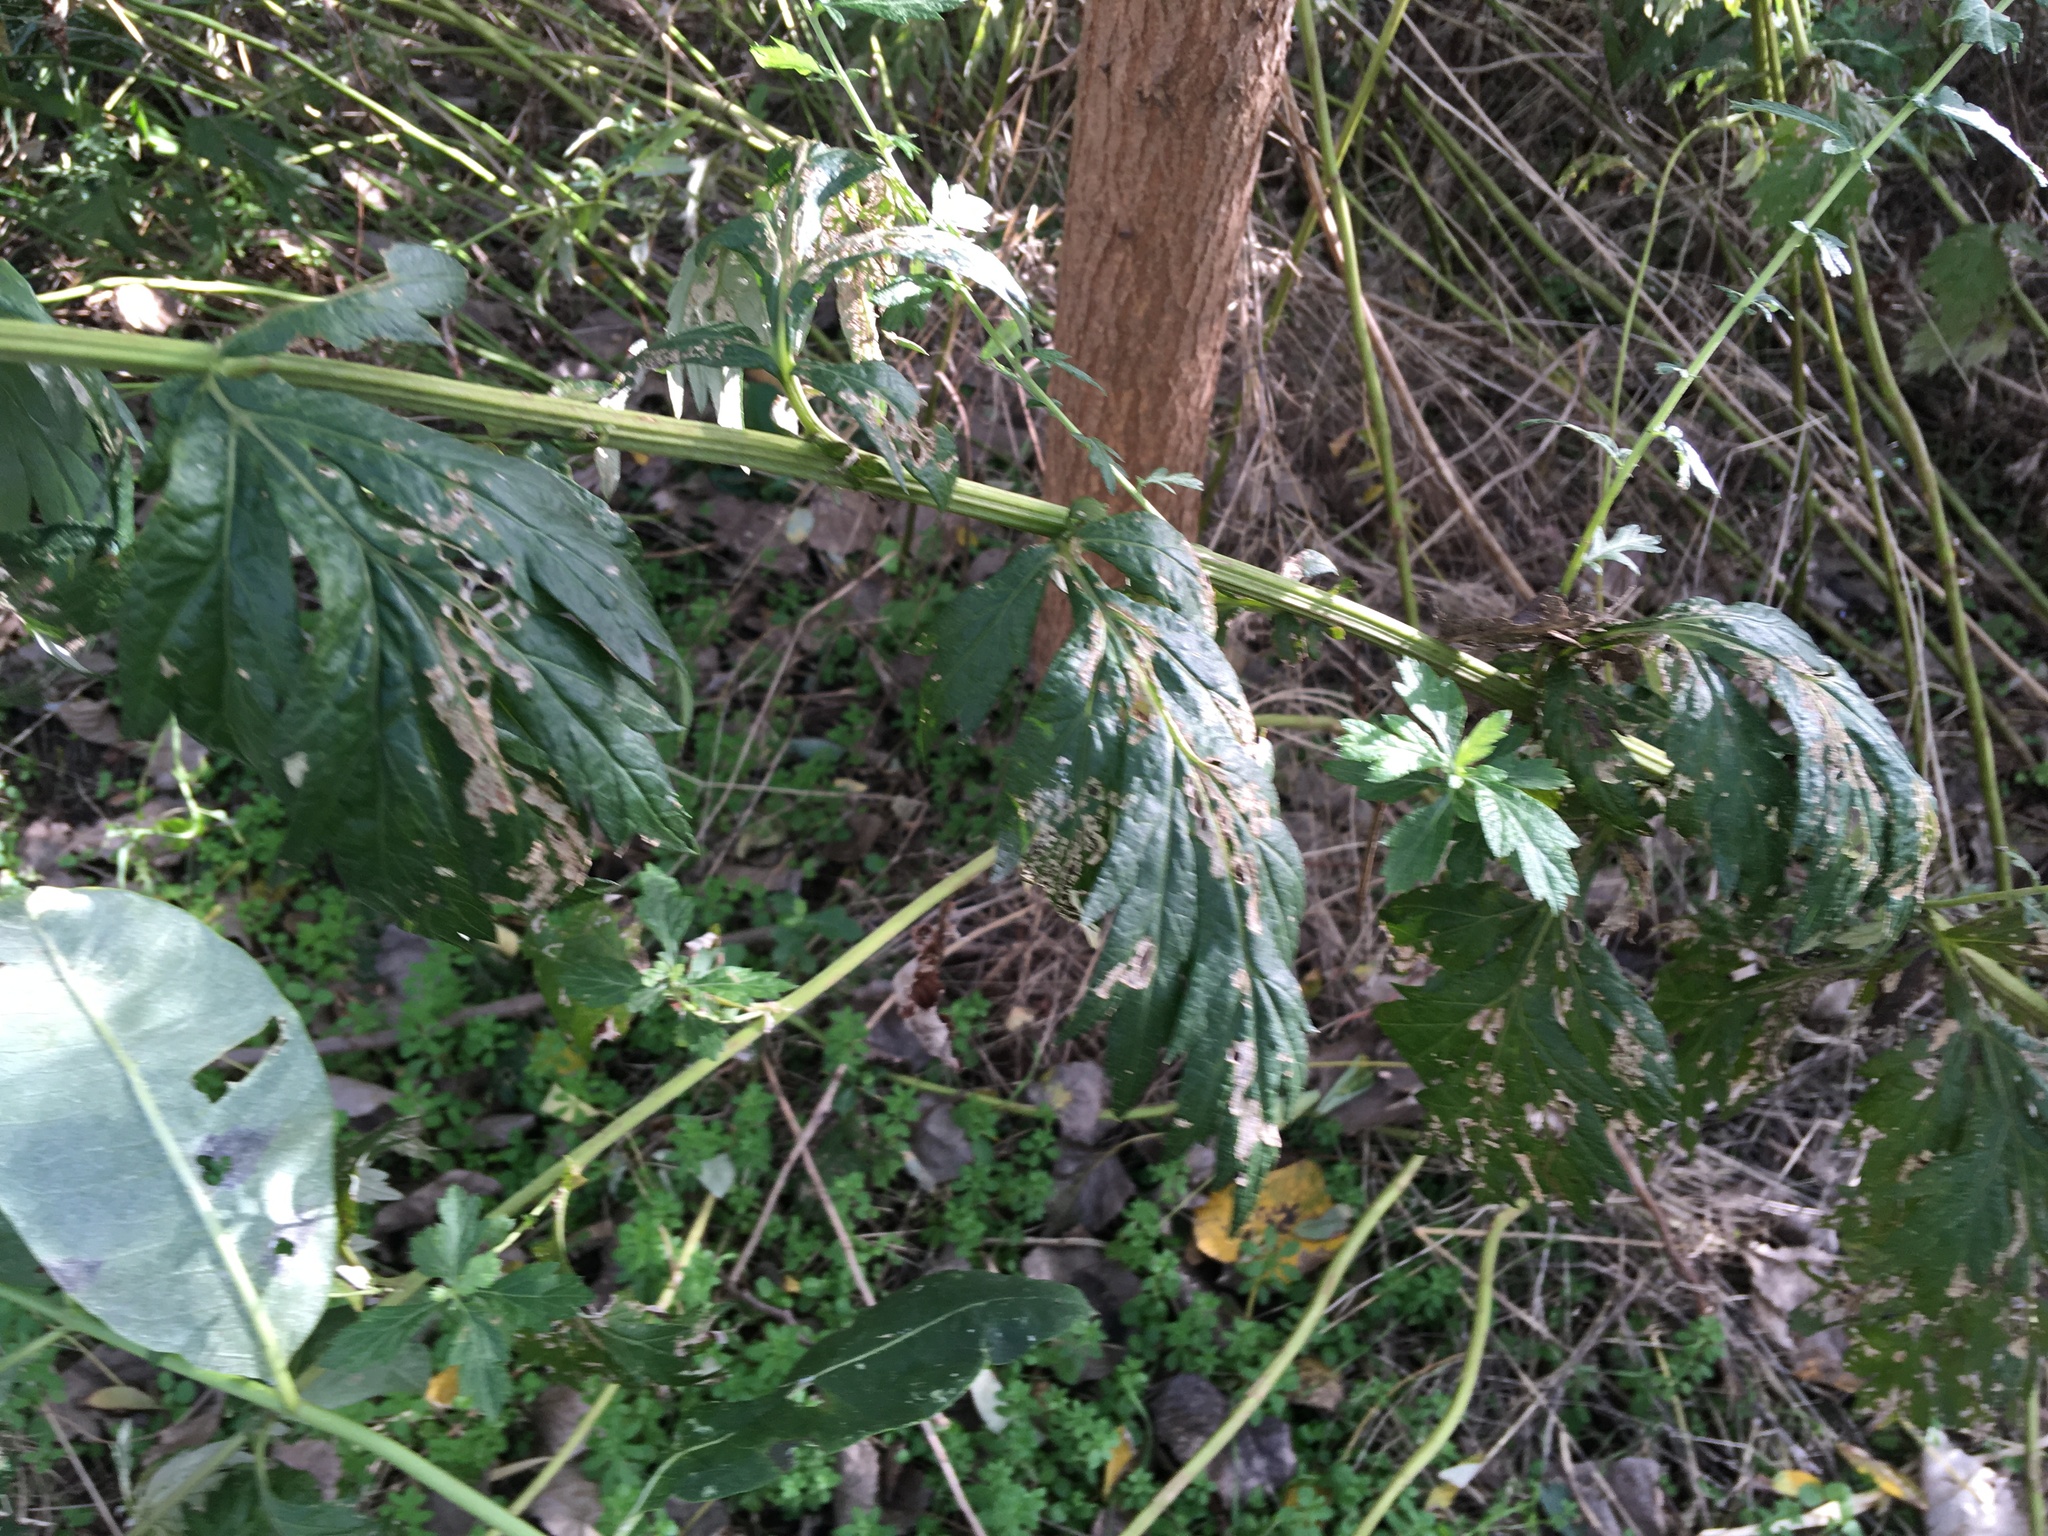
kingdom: Plantae
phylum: Tracheophyta
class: Magnoliopsida
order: Asterales
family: Asteraceae
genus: Artemisia
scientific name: Artemisia vulgaris
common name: Mugwort
